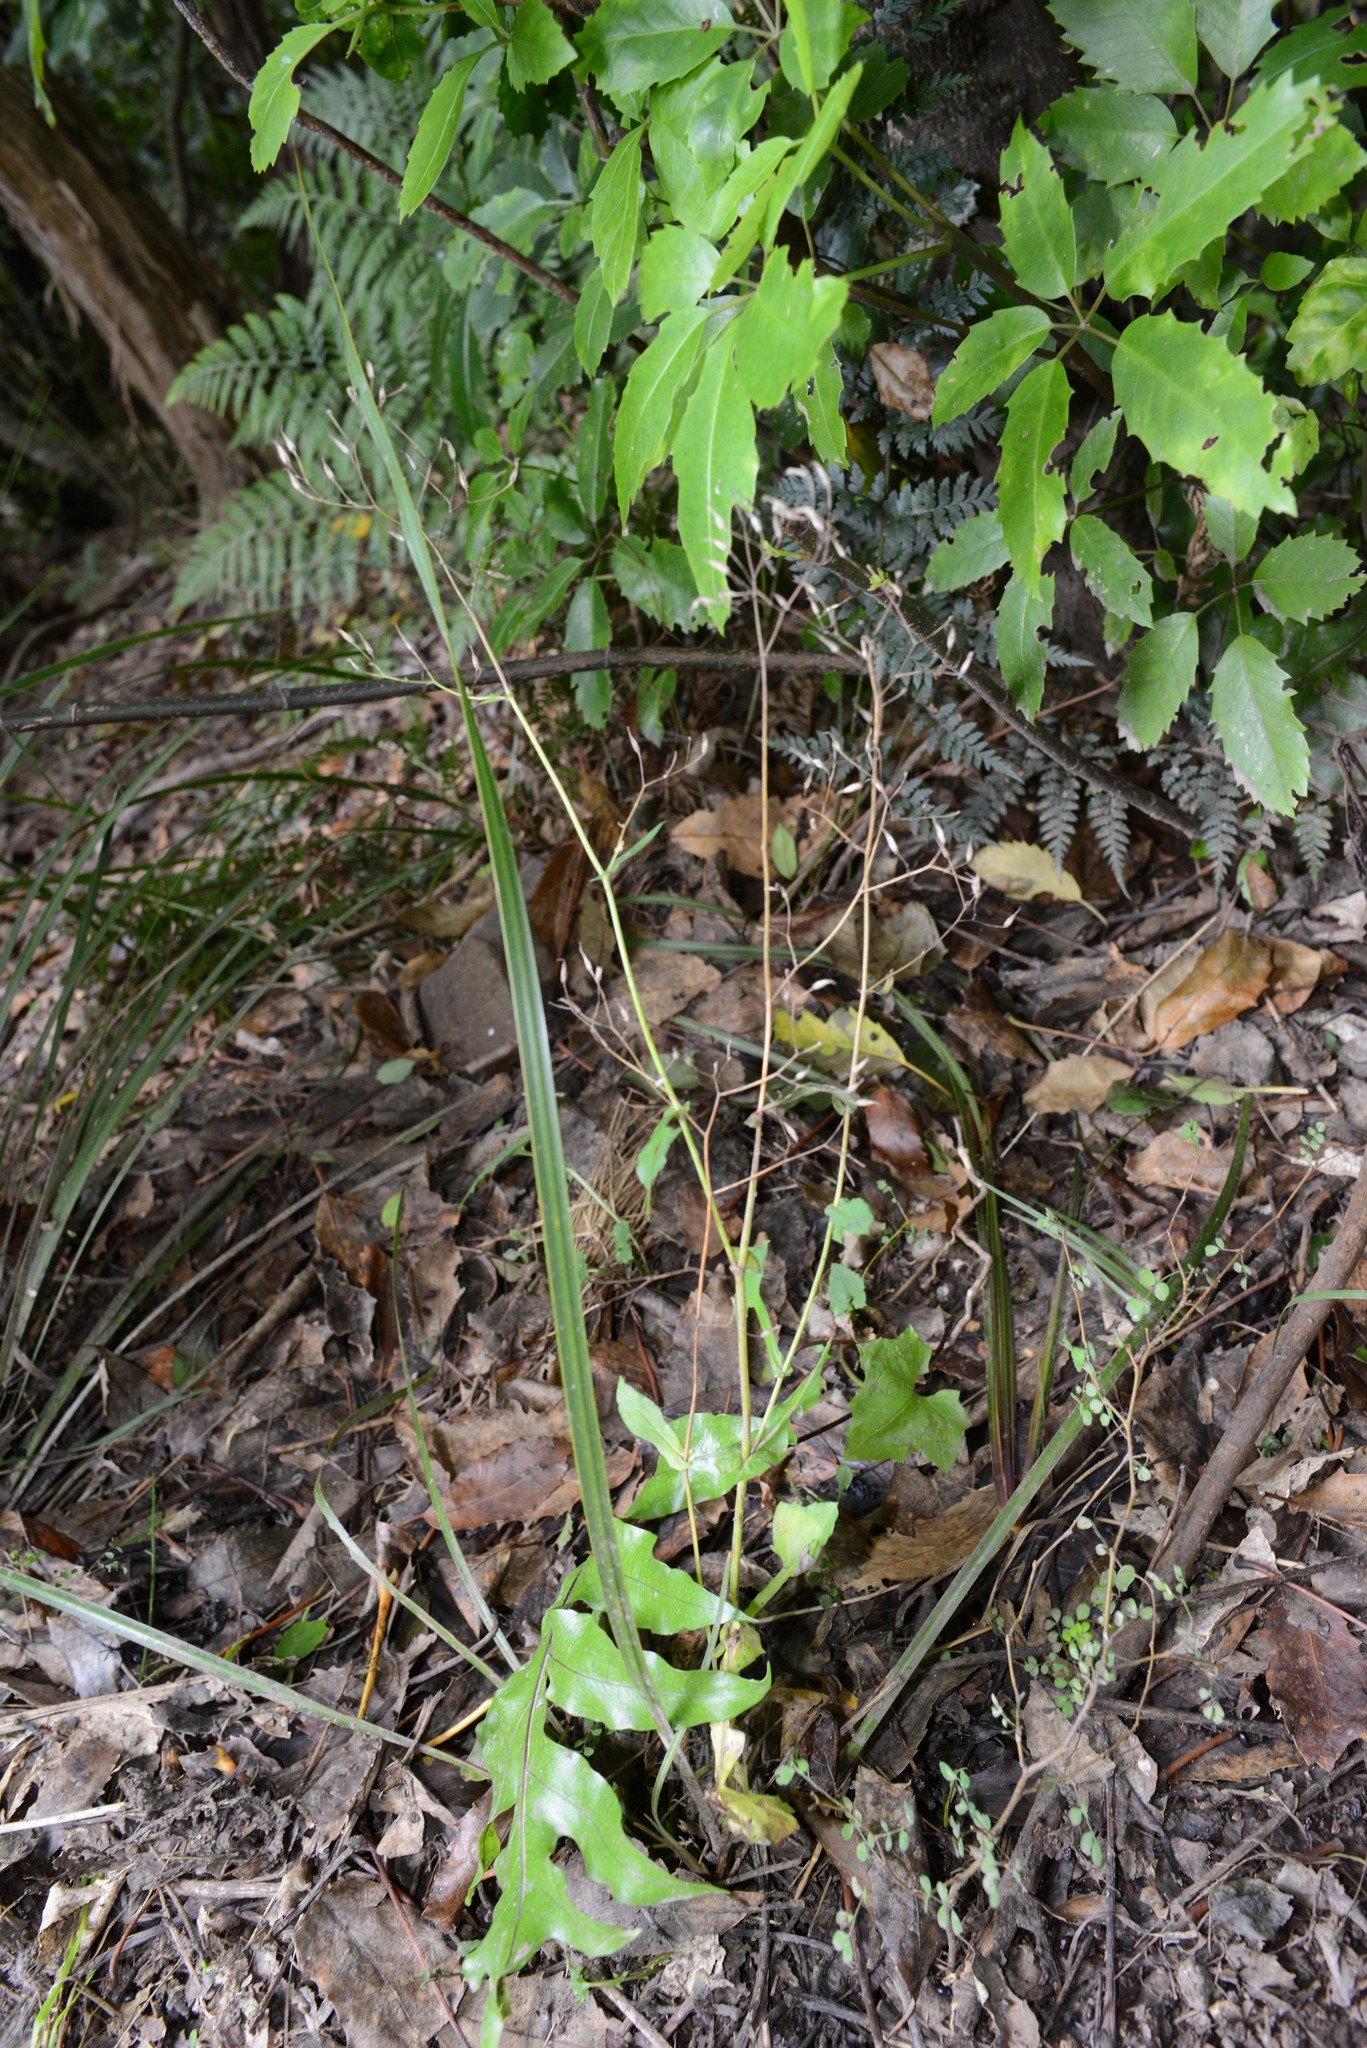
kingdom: Plantae
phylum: Tracheophyta
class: Magnoliopsida
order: Asterales
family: Asteraceae
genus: Mycelis
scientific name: Mycelis muralis
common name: Wall lettuce
